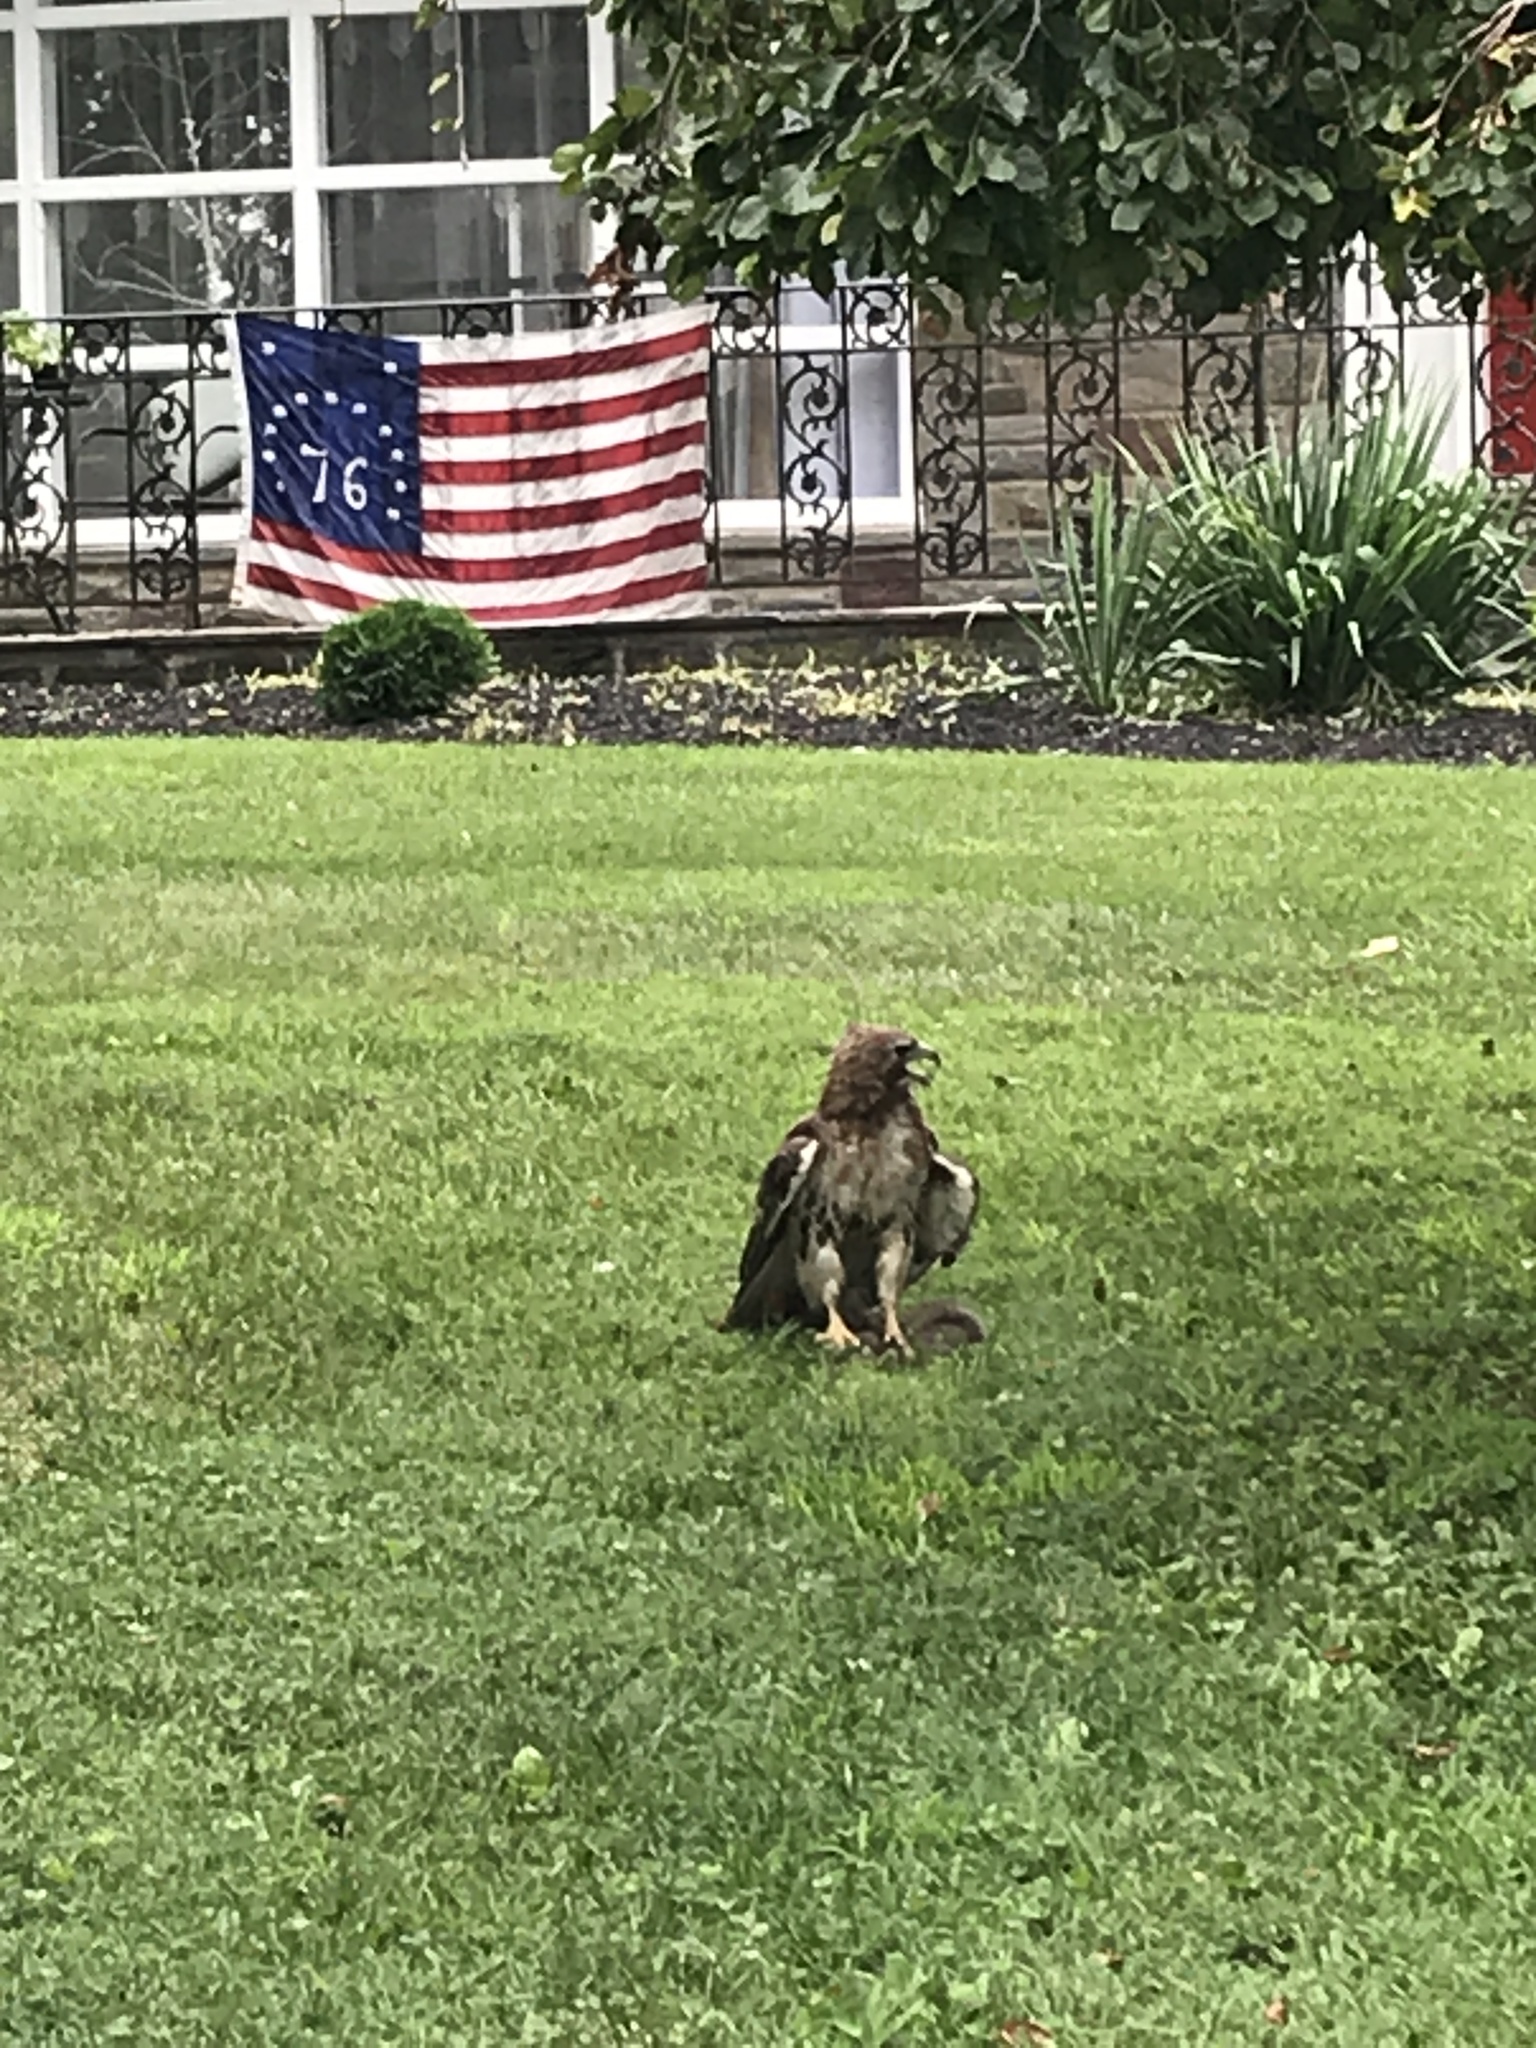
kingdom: Animalia
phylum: Chordata
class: Aves
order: Accipitriformes
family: Accipitridae
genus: Buteo
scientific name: Buteo jamaicensis
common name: Red-tailed hawk
